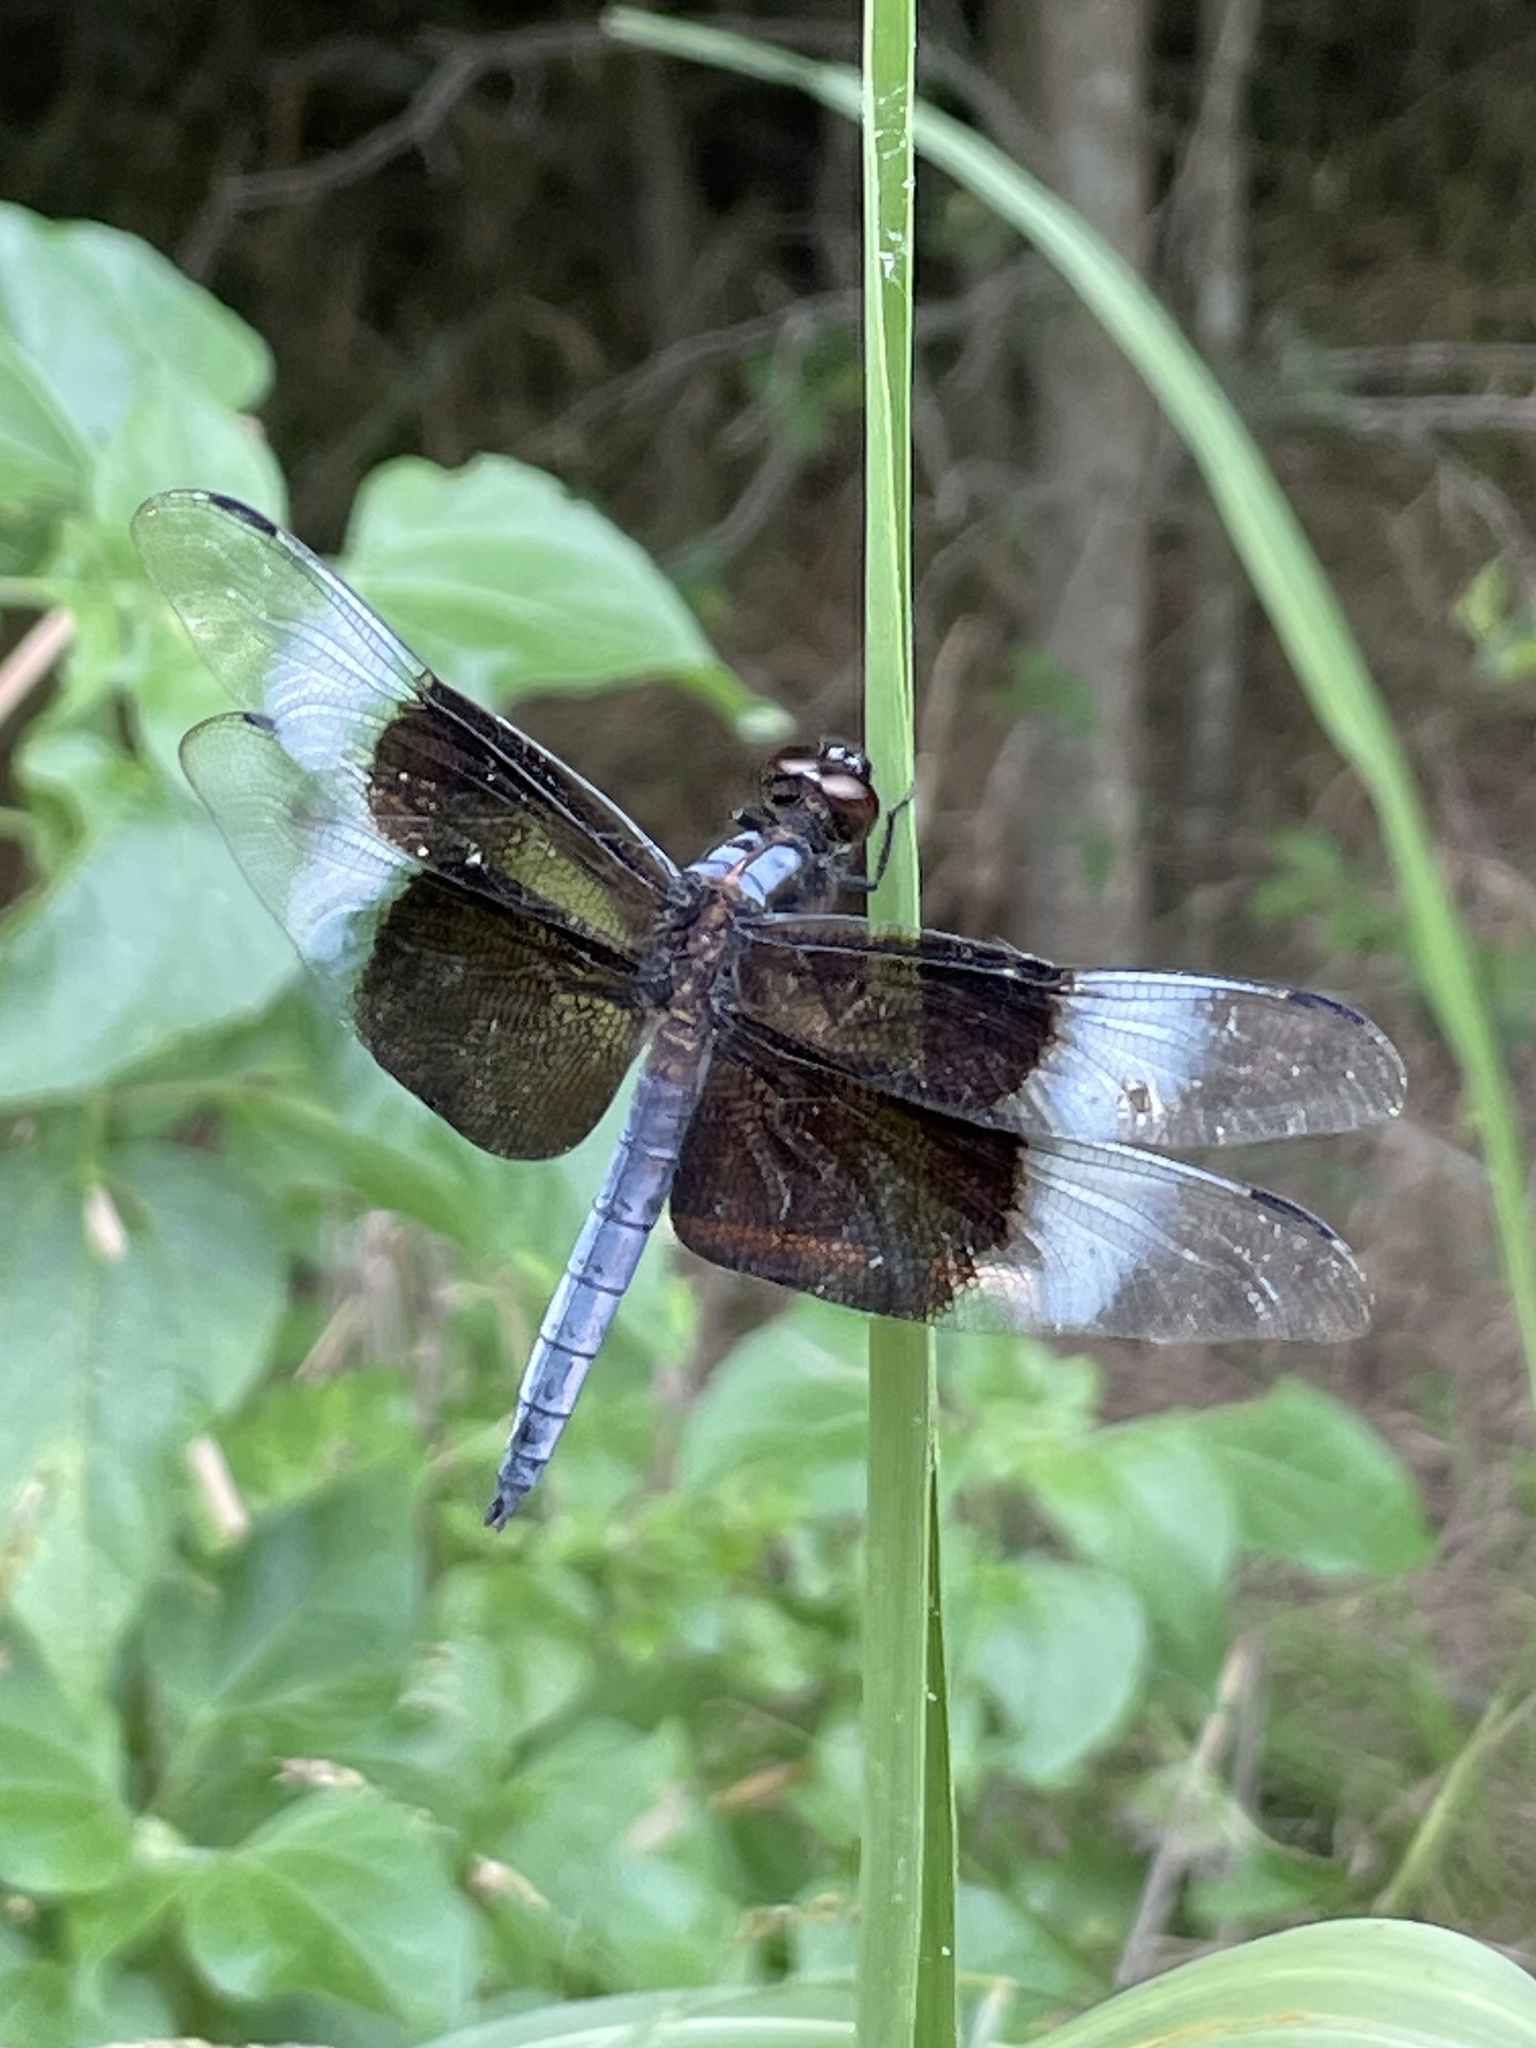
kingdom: Animalia
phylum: Arthropoda
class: Insecta
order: Odonata
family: Libellulidae
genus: Libellula
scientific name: Libellula luctuosa
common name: Widow skimmer
